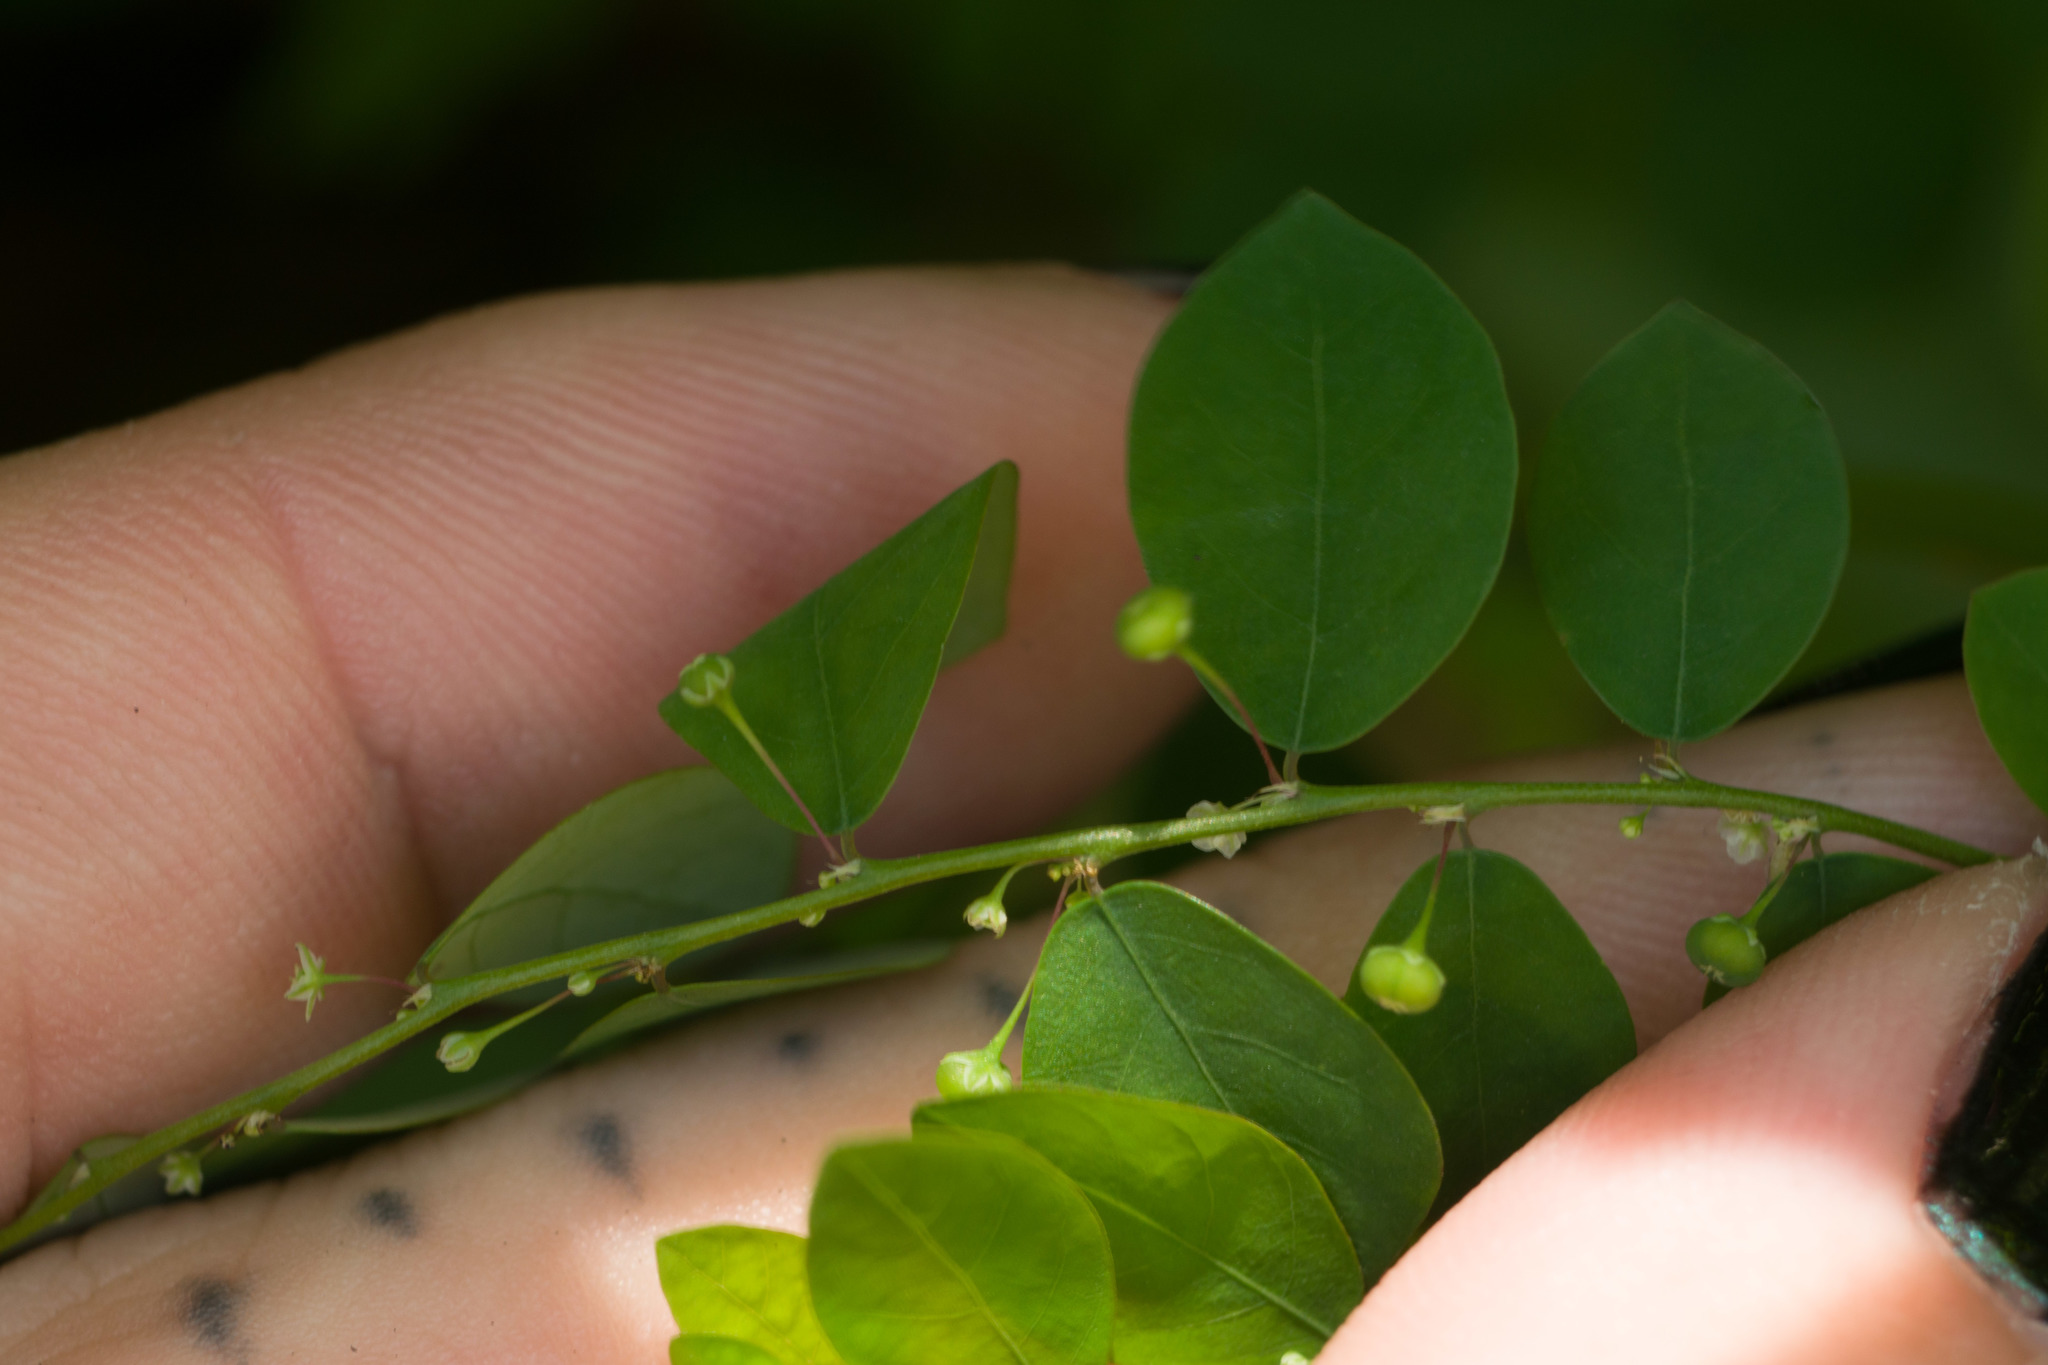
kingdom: Plantae
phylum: Tracheophyta
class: Magnoliopsida
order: Malpighiales
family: Phyllanthaceae
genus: Phyllanthus
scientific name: Phyllanthus tenellus
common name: Mascarene island leaf-flower
